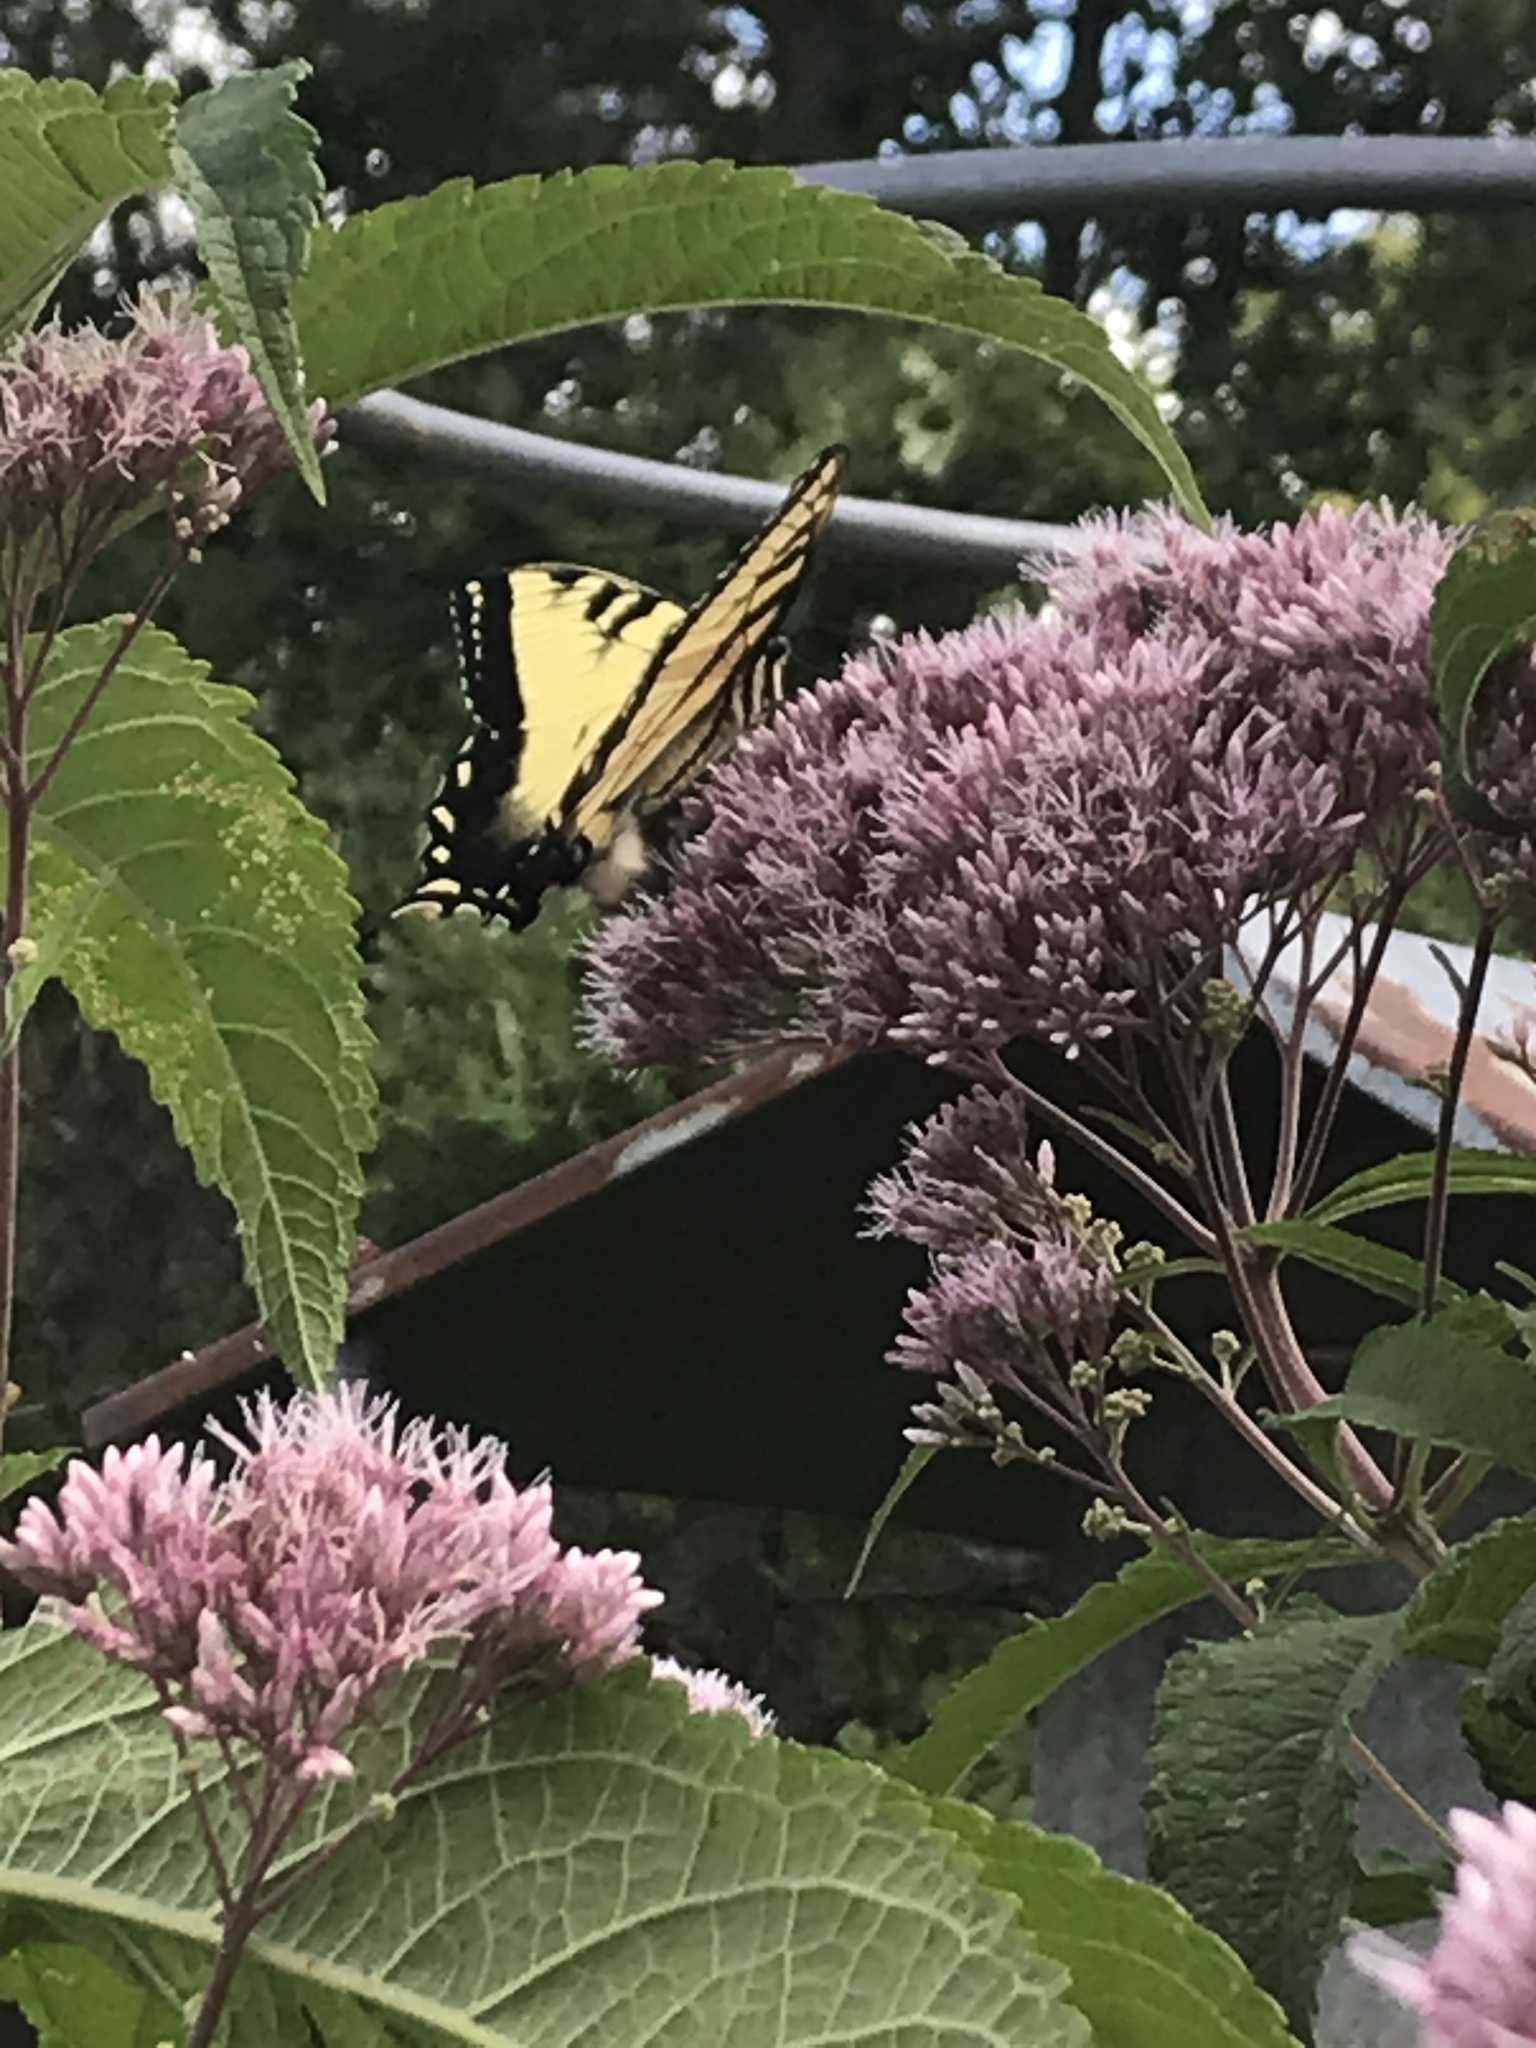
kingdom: Animalia
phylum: Arthropoda
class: Insecta
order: Lepidoptera
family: Papilionidae
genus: Papilio
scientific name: Papilio glaucus
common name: Tiger swallowtail
